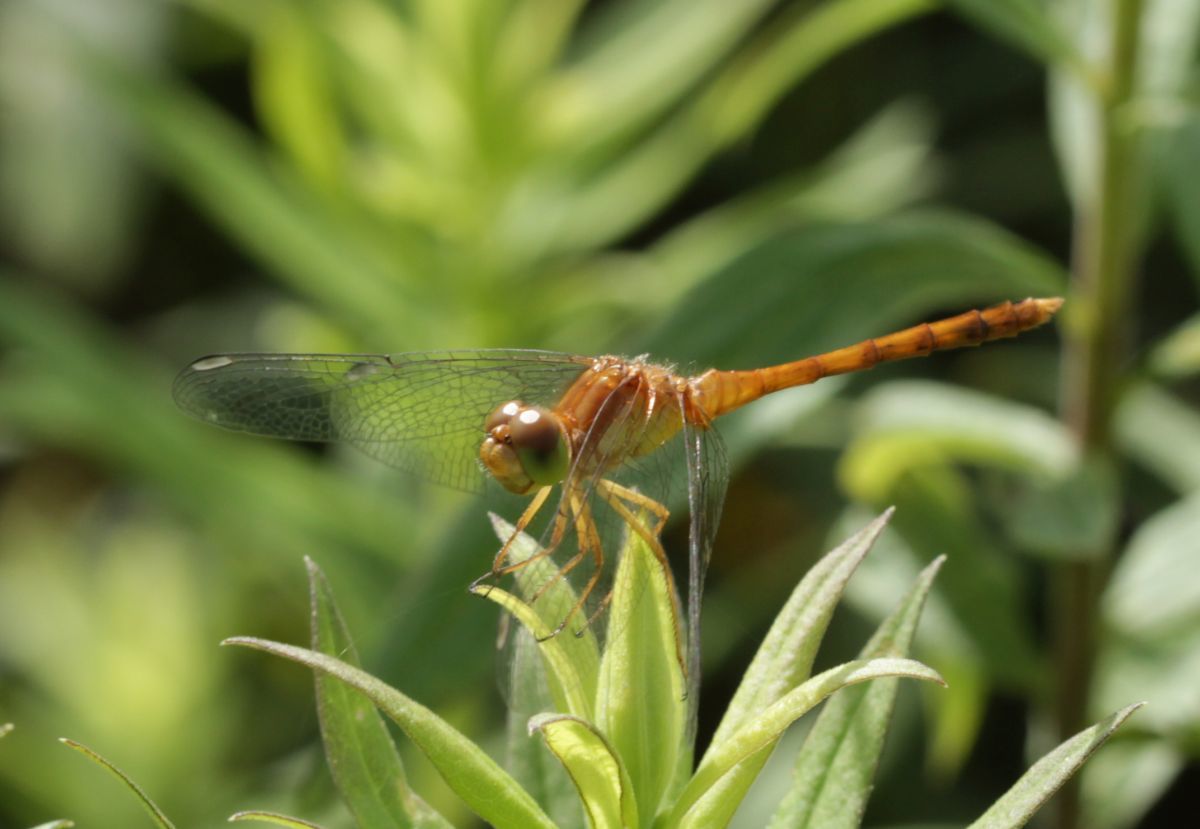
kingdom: Animalia
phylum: Arthropoda
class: Insecta
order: Odonata
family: Libellulidae
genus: Sympetrum
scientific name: Sympetrum vicinum
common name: Autumn meadowhawk
